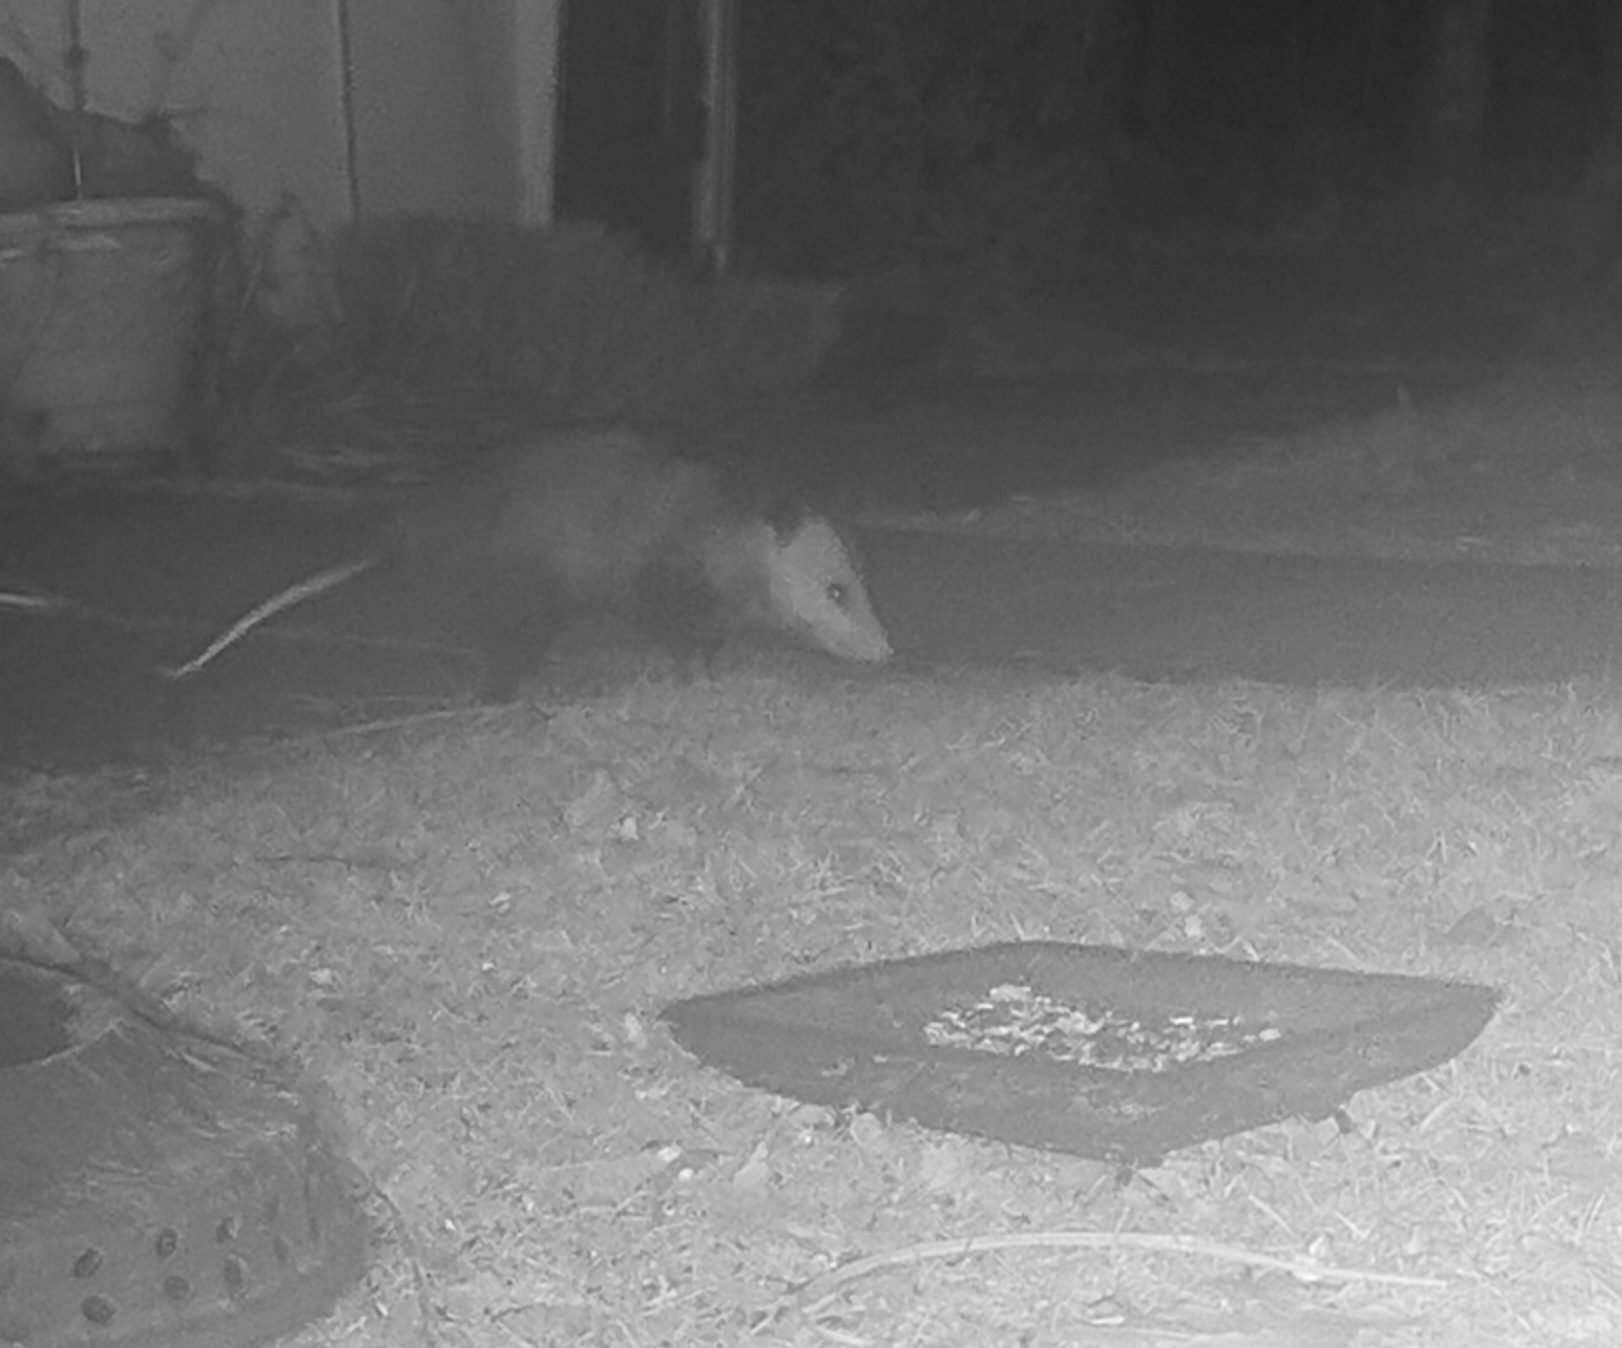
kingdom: Animalia
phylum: Chordata
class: Mammalia
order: Didelphimorphia
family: Didelphidae
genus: Didelphis
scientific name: Didelphis virginiana
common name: Virginia opossum
